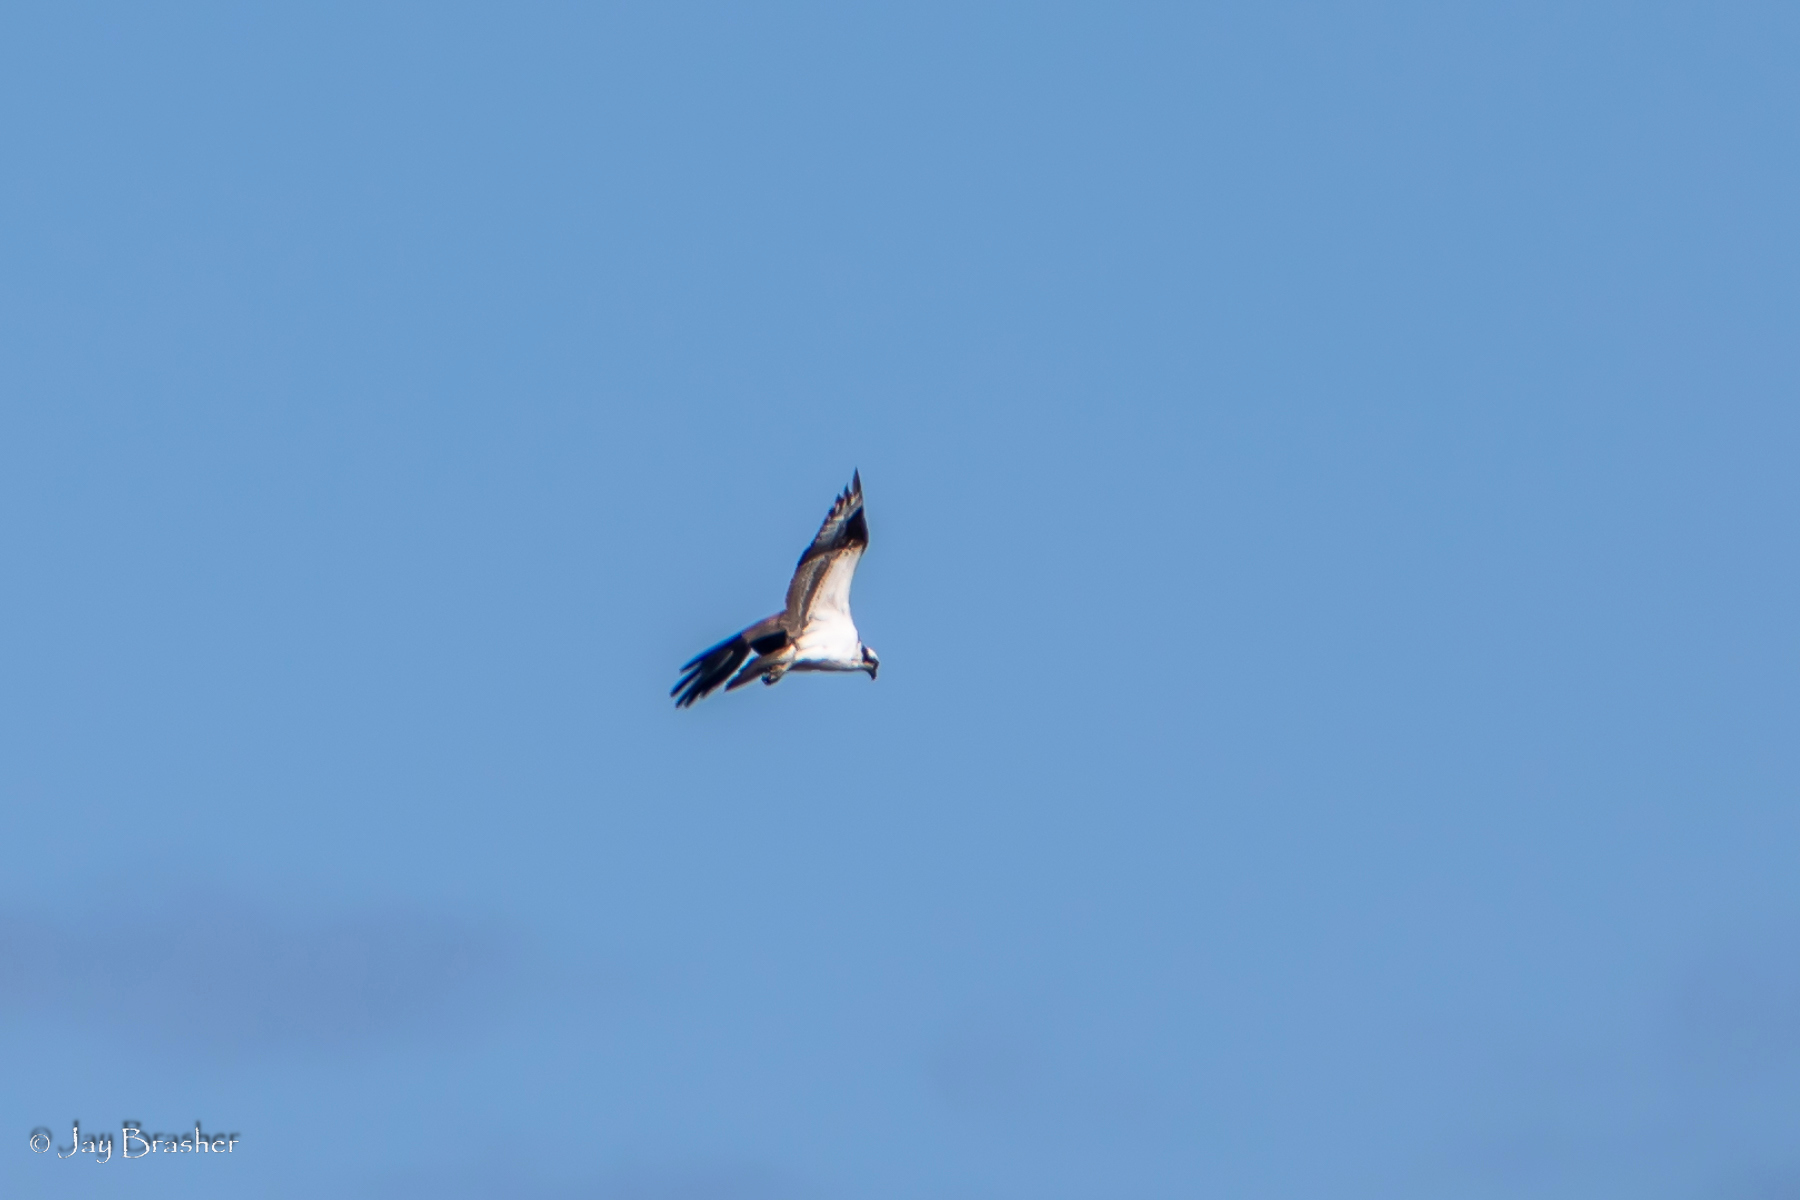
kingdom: Animalia
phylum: Chordata
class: Aves
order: Accipitriformes
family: Pandionidae
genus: Pandion
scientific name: Pandion haliaetus
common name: Osprey
